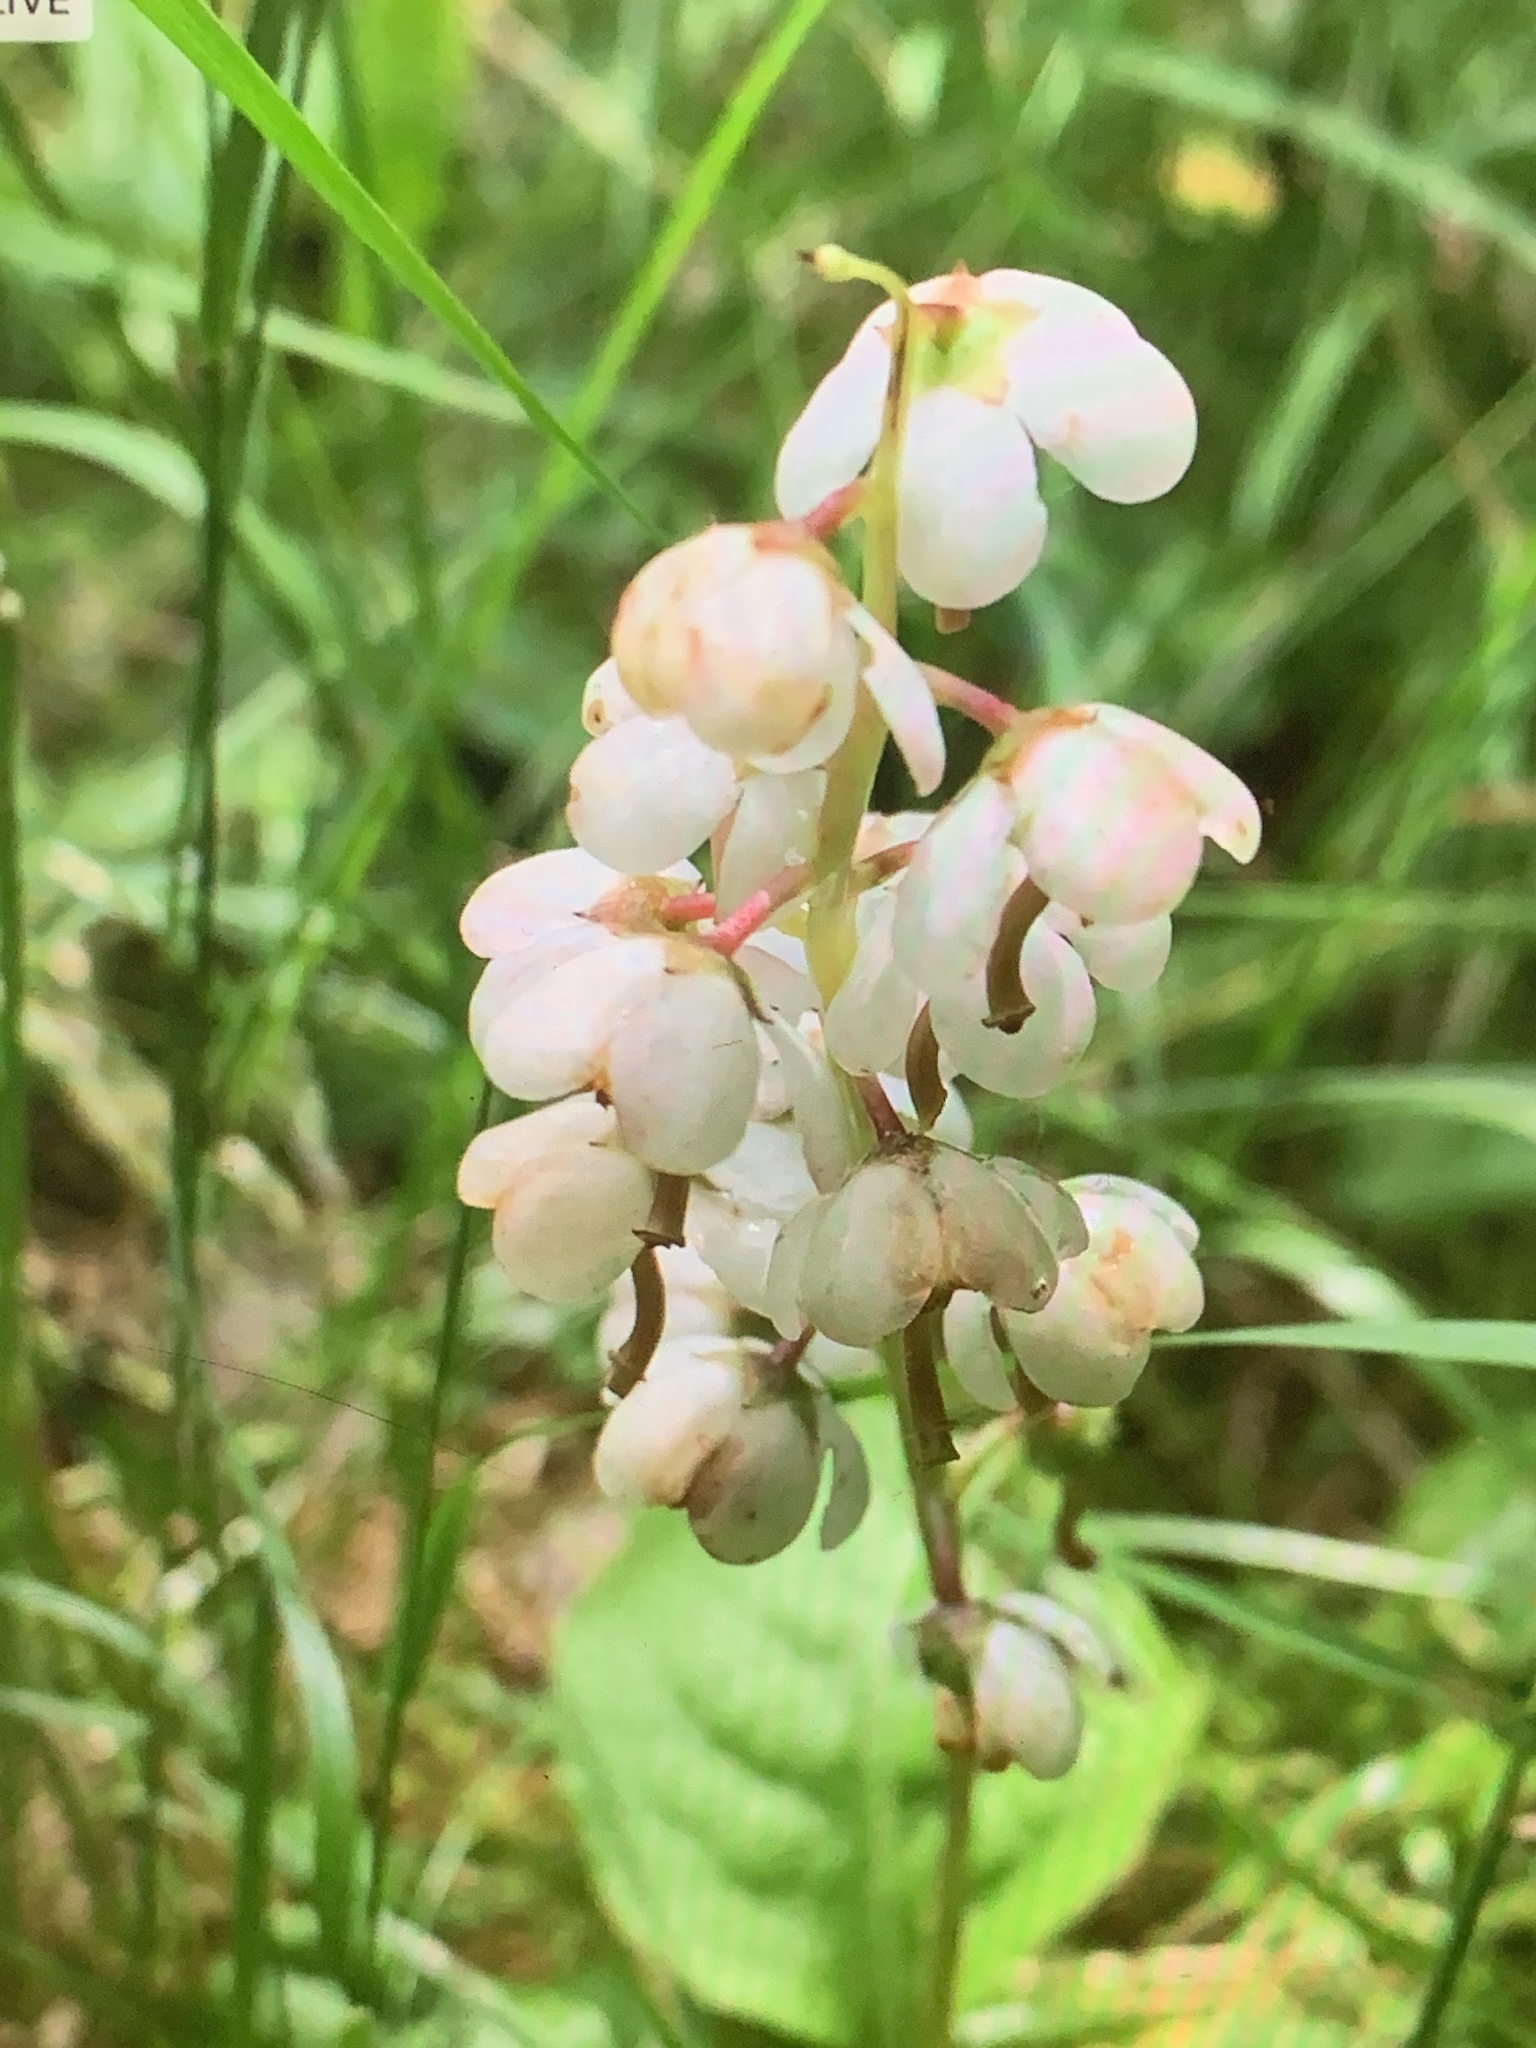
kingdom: Plantae
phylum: Tracheophyta
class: Magnoliopsida
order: Ericales
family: Ericaceae
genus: Pyrola
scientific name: Pyrola elliptica
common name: Shinleaf
